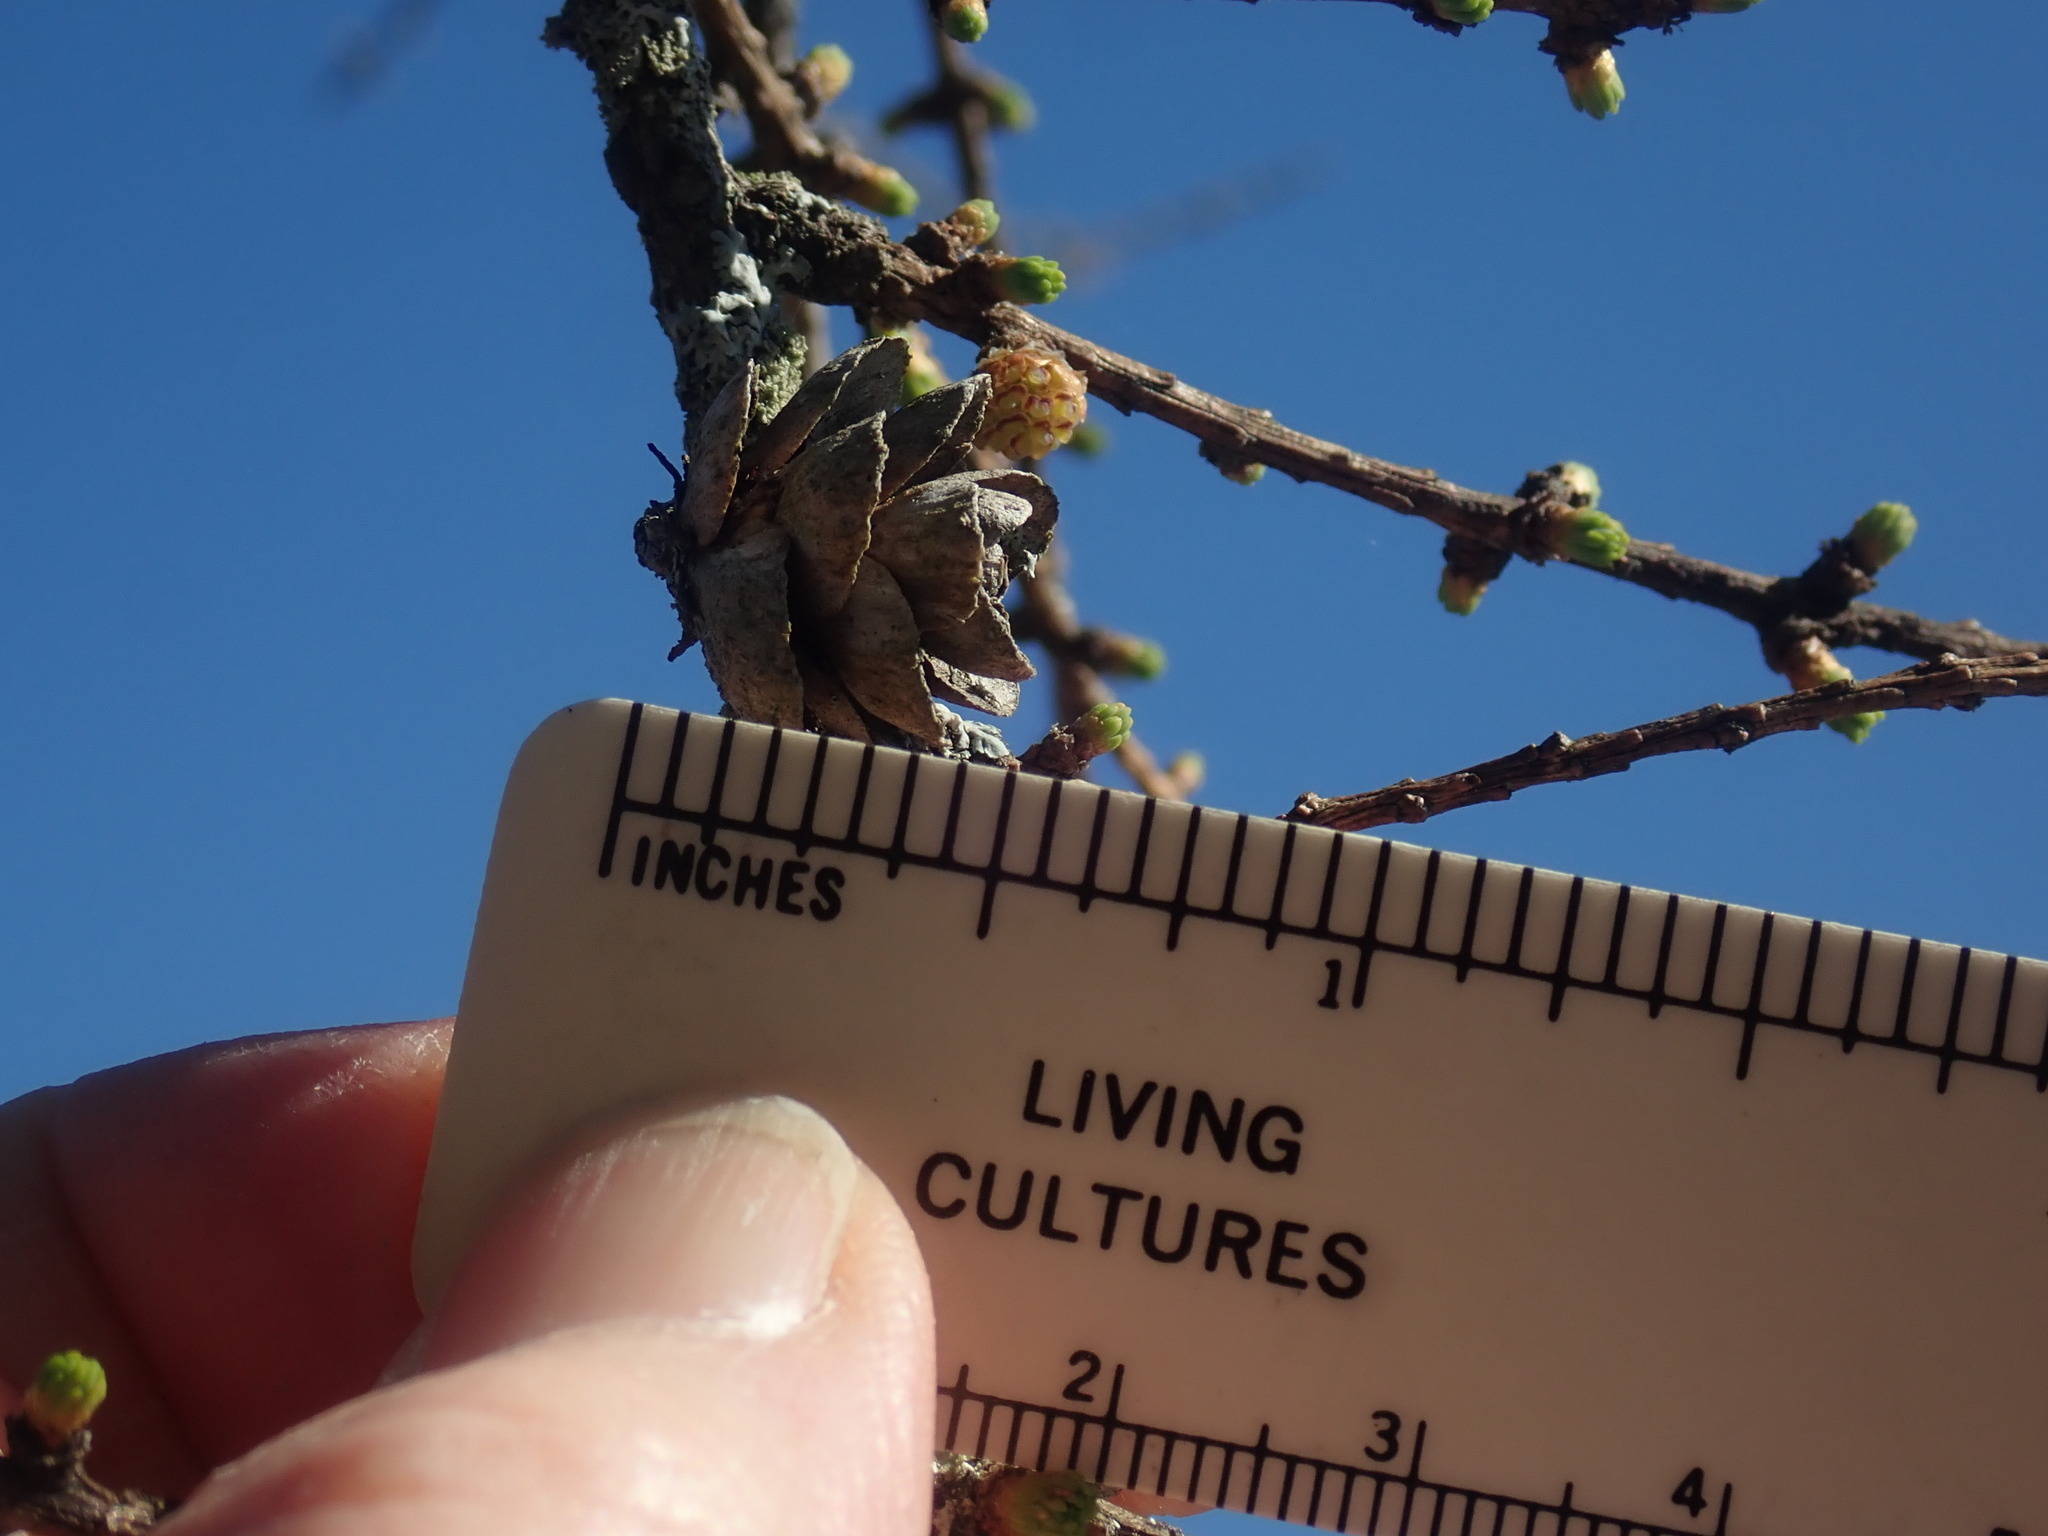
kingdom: Plantae
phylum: Tracheophyta
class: Pinopsida
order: Pinales
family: Pinaceae
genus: Larix
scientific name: Larix laricina
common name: American larch
